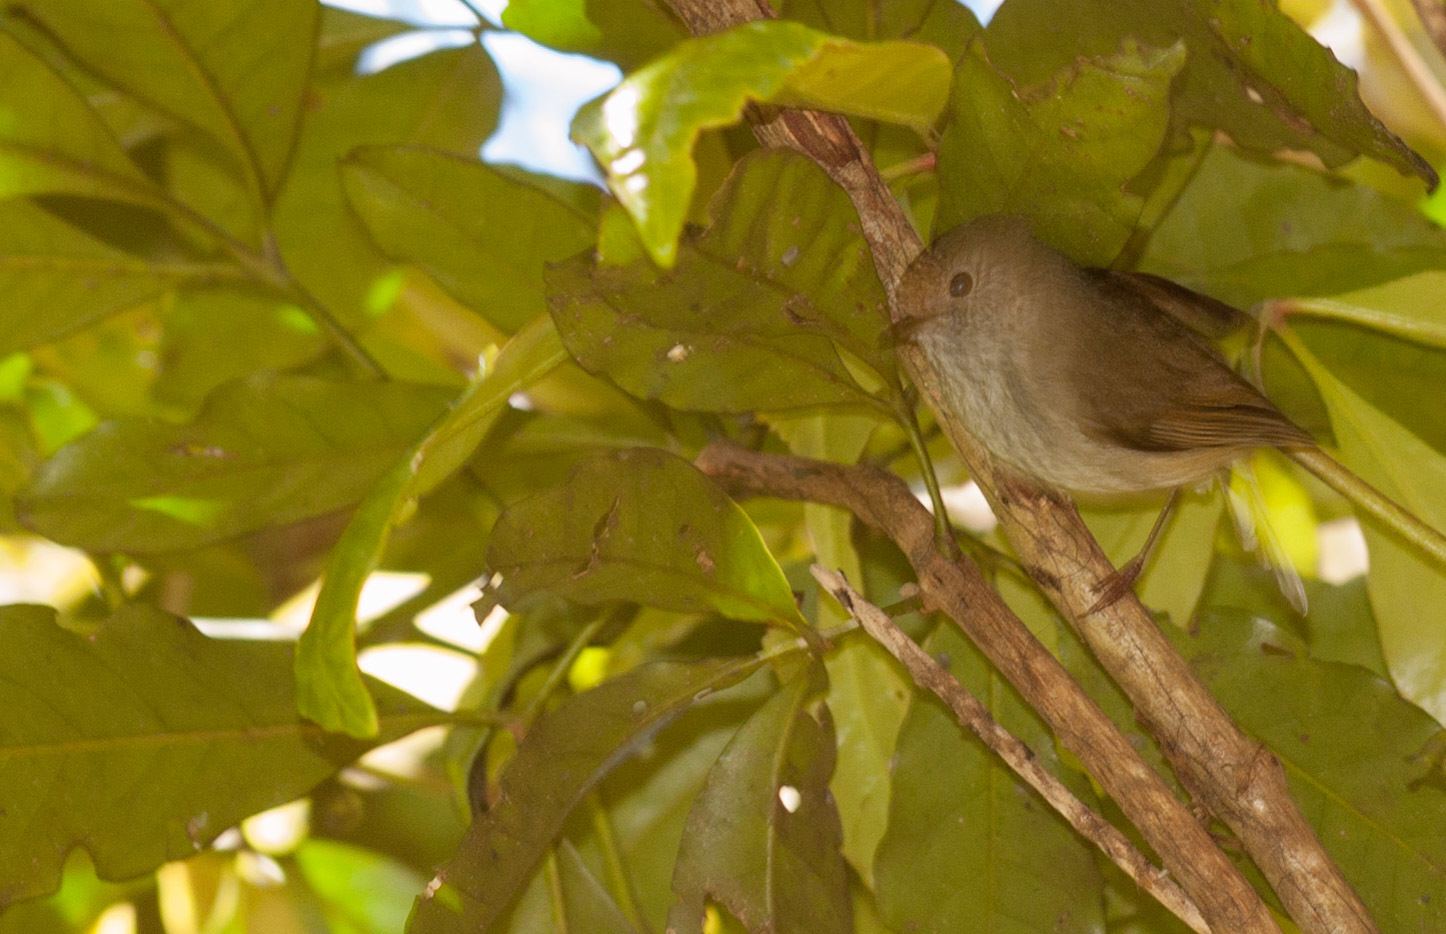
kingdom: Animalia
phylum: Chordata
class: Aves
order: Passeriformes
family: Acanthizidae
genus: Acanthiza
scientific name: Acanthiza pusilla
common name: Brown thornbill
